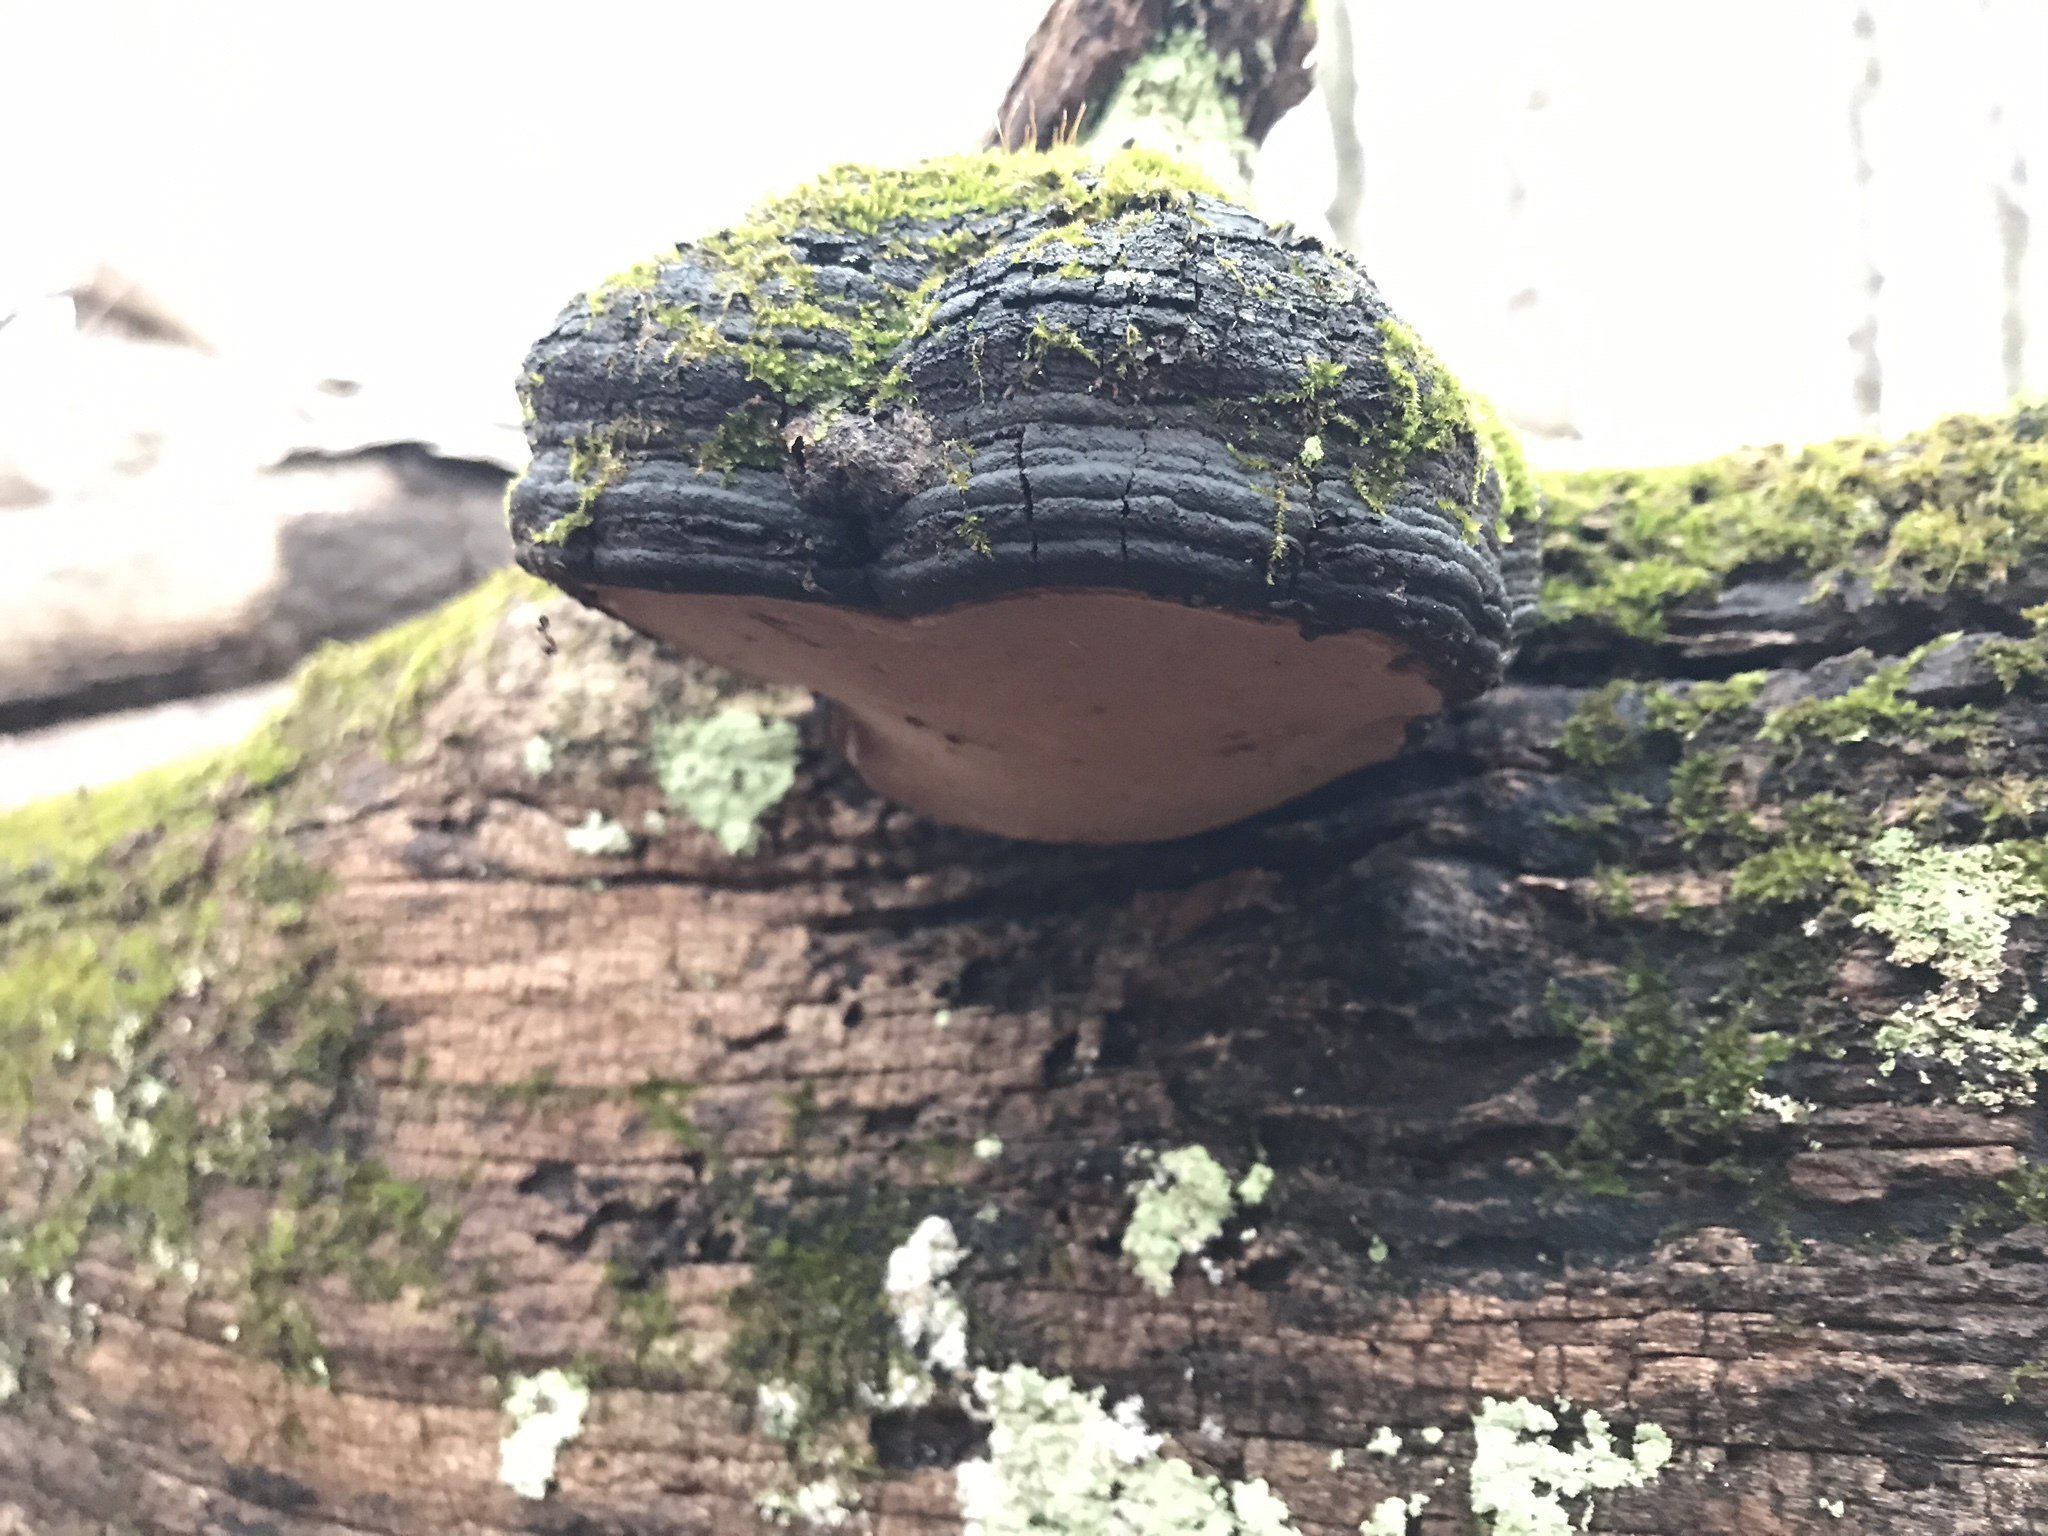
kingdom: Fungi
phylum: Basidiomycota
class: Agaricomycetes
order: Hymenochaetales
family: Hymenochaetaceae
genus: Phellinus
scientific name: Phellinus robiniae
